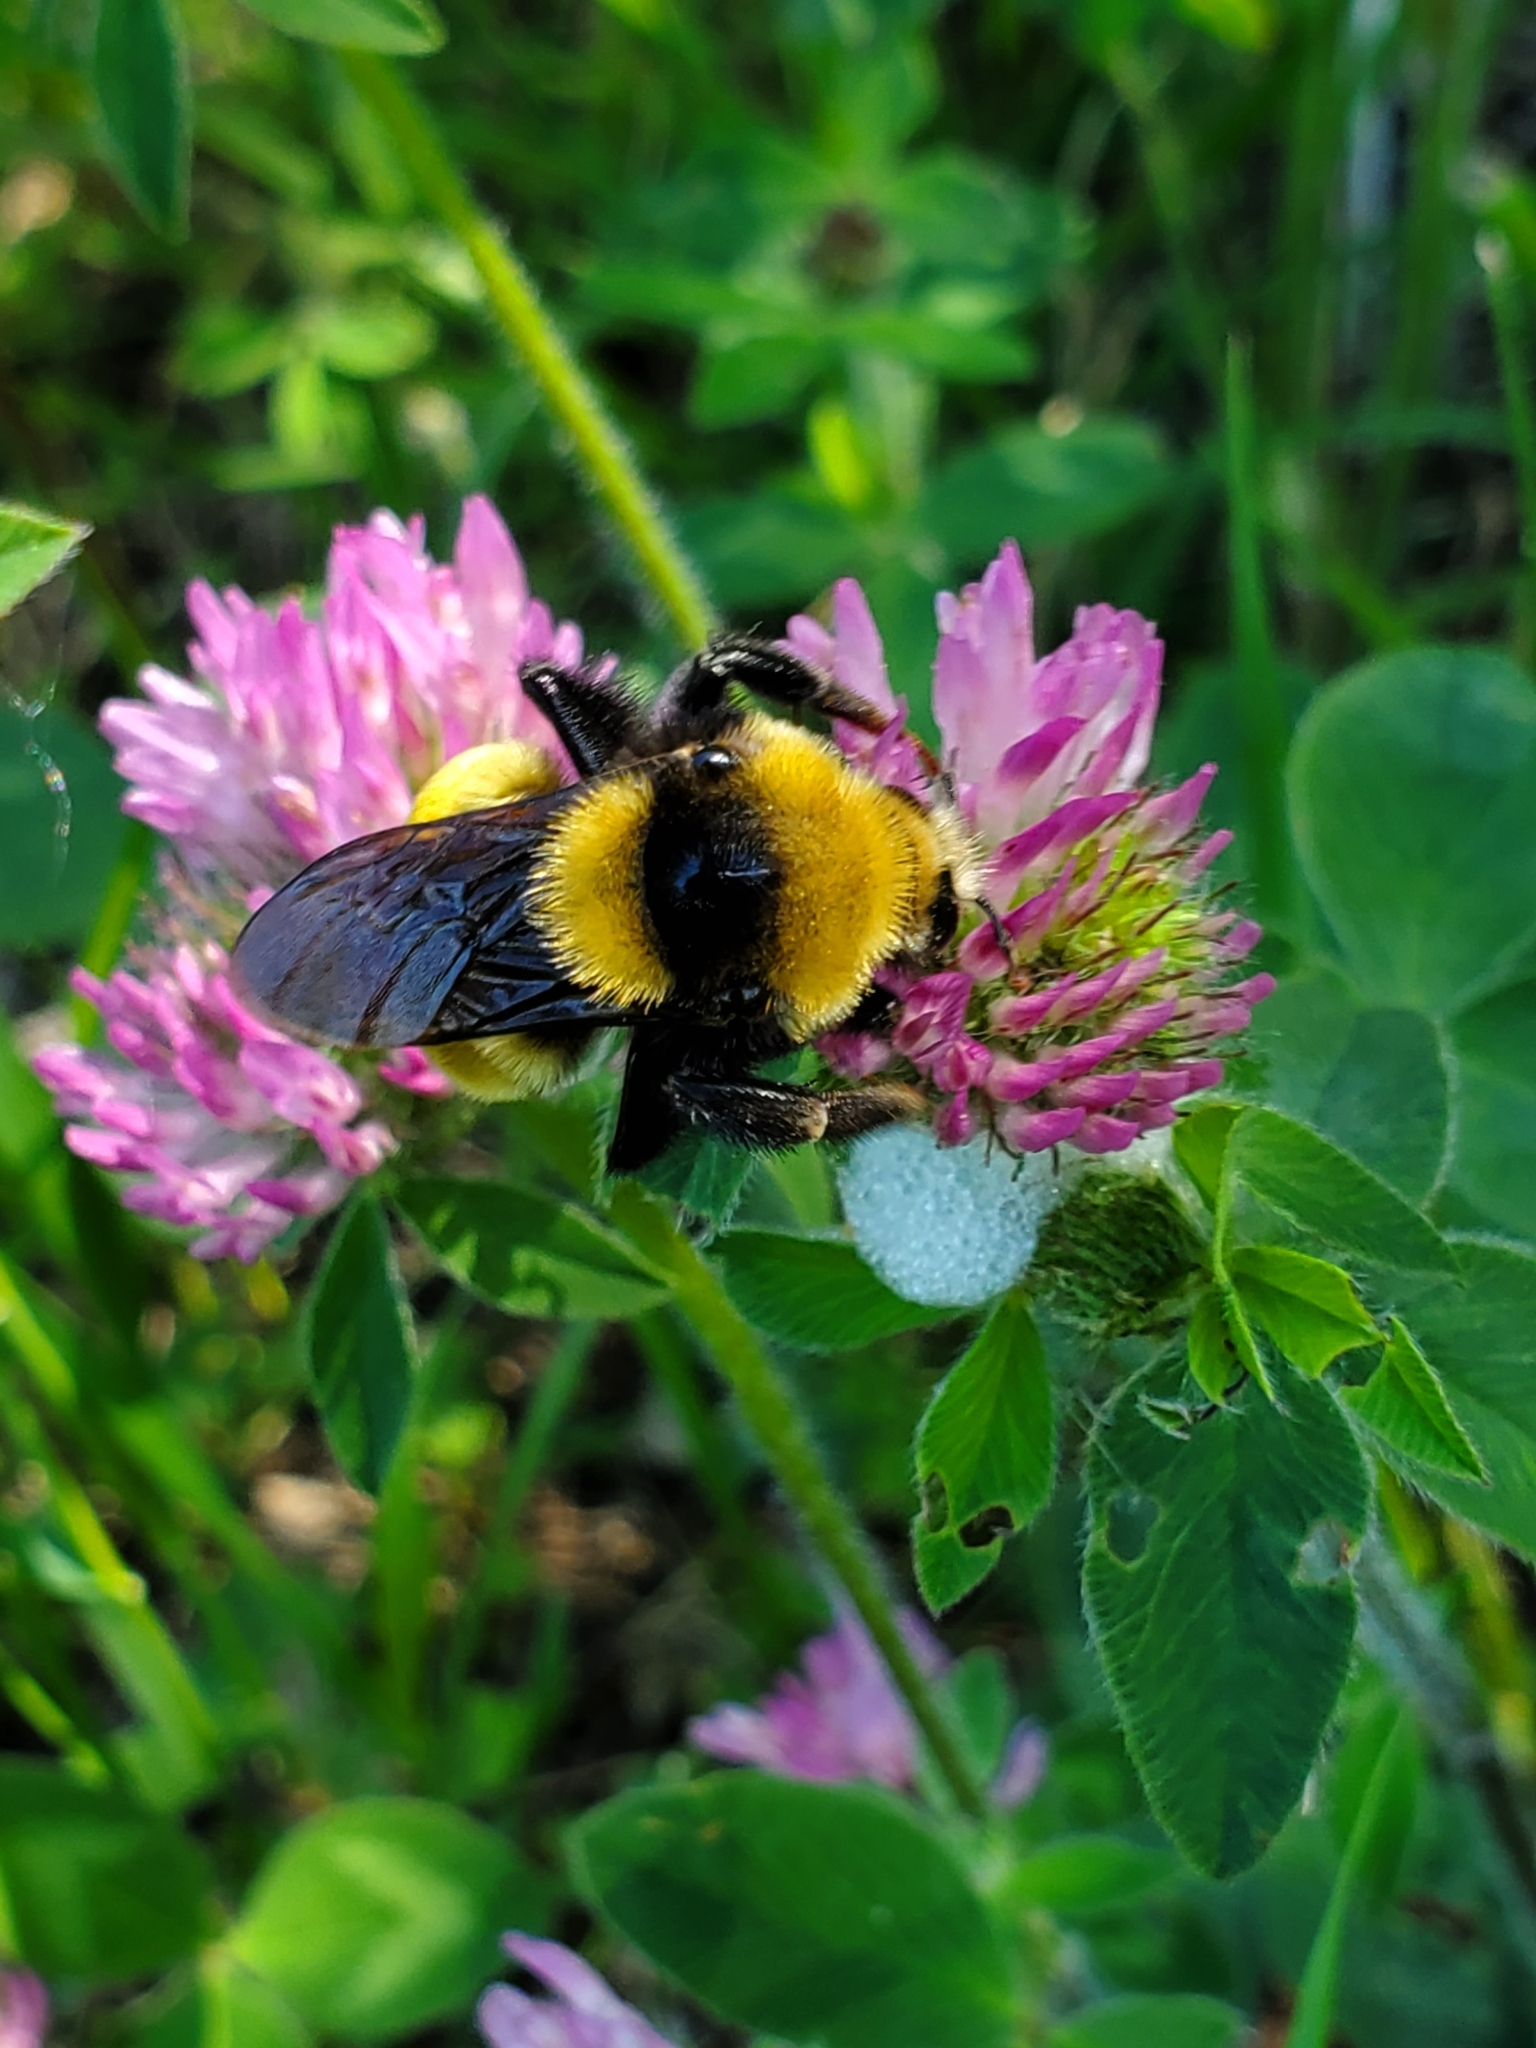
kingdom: Animalia
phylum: Arthropoda
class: Insecta
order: Hymenoptera
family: Apidae
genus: Bombus
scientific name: Bombus borealis
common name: Northern amber bumble bee
